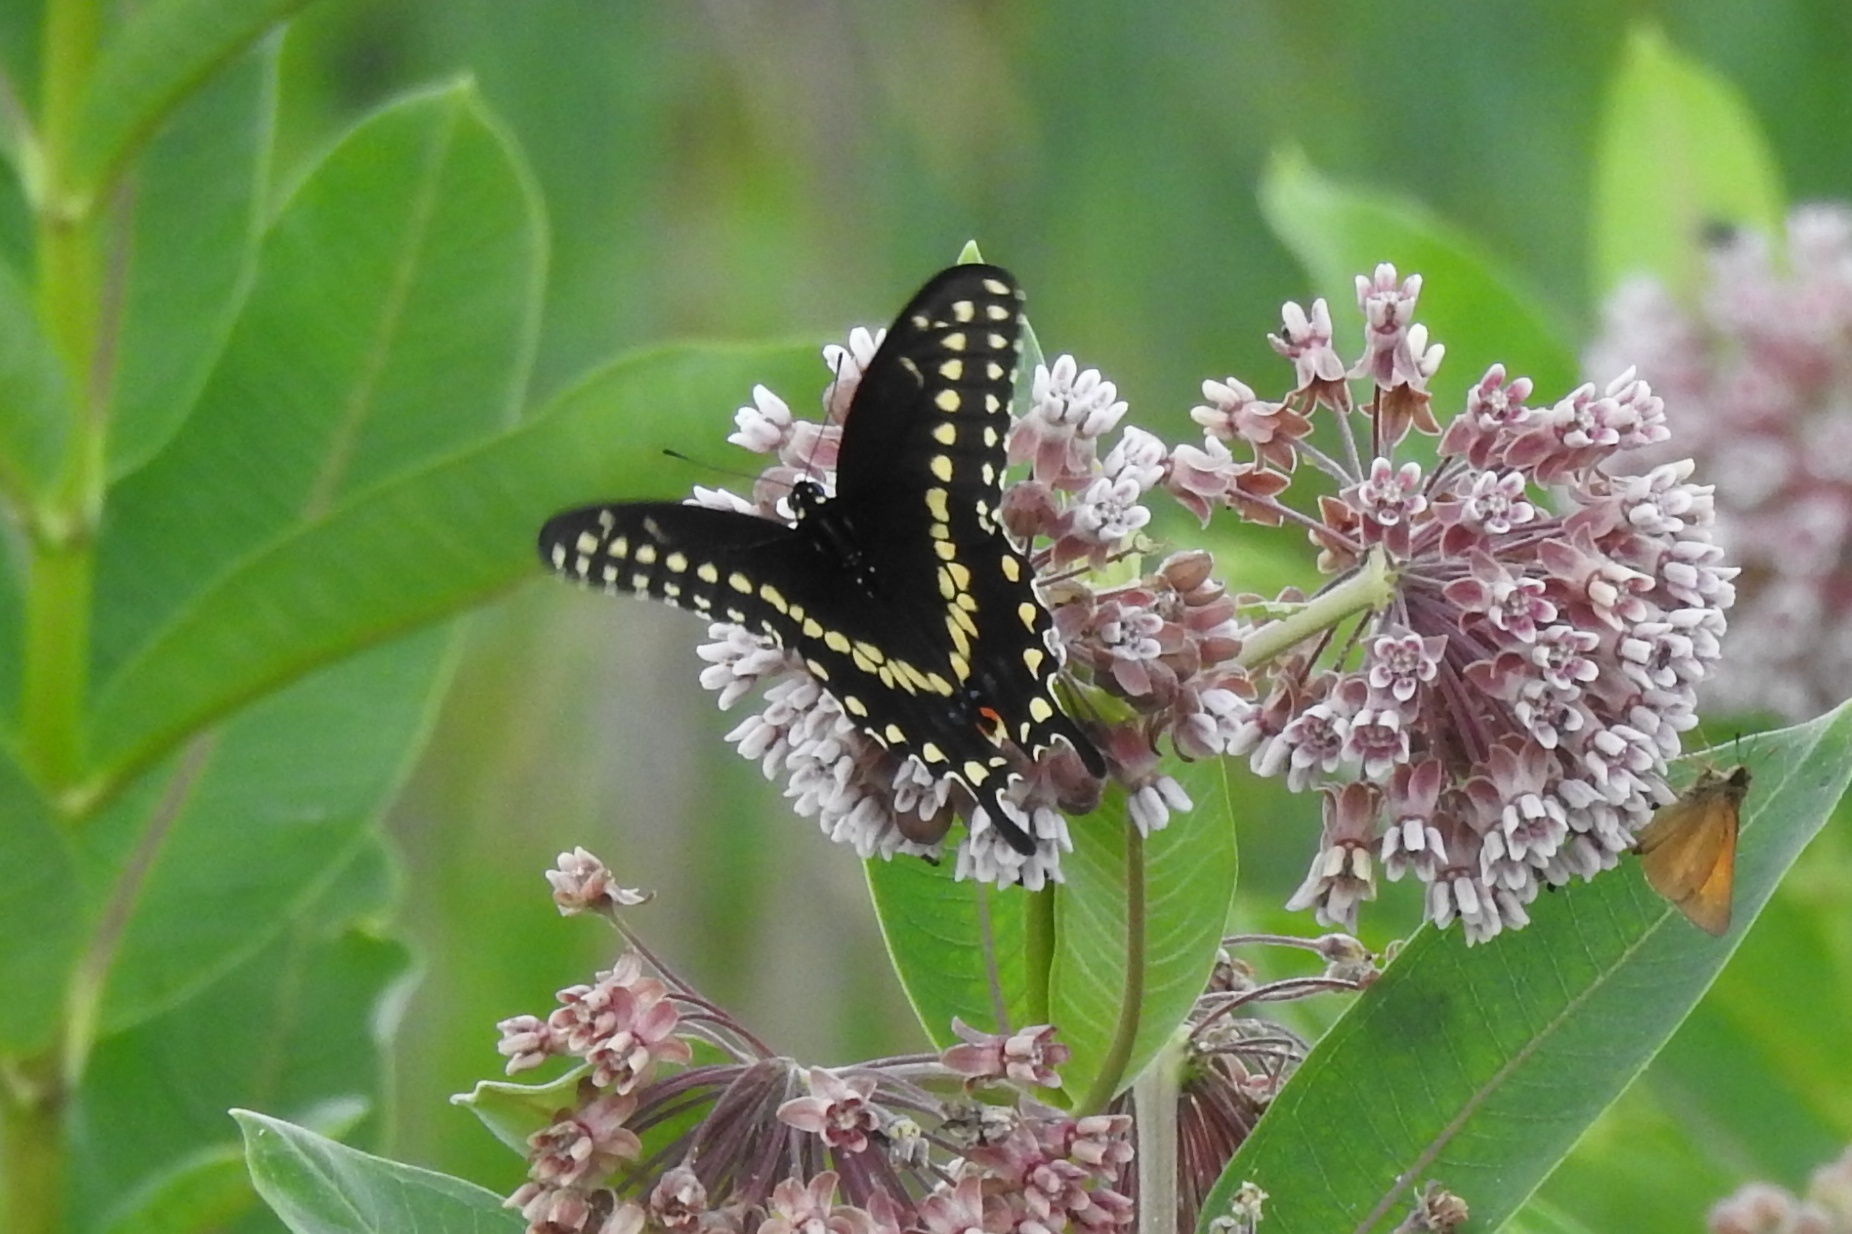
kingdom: Animalia
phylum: Arthropoda
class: Insecta
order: Lepidoptera
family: Papilionidae
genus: Papilio
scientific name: Papilio polyxenes
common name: Black swallowtail
